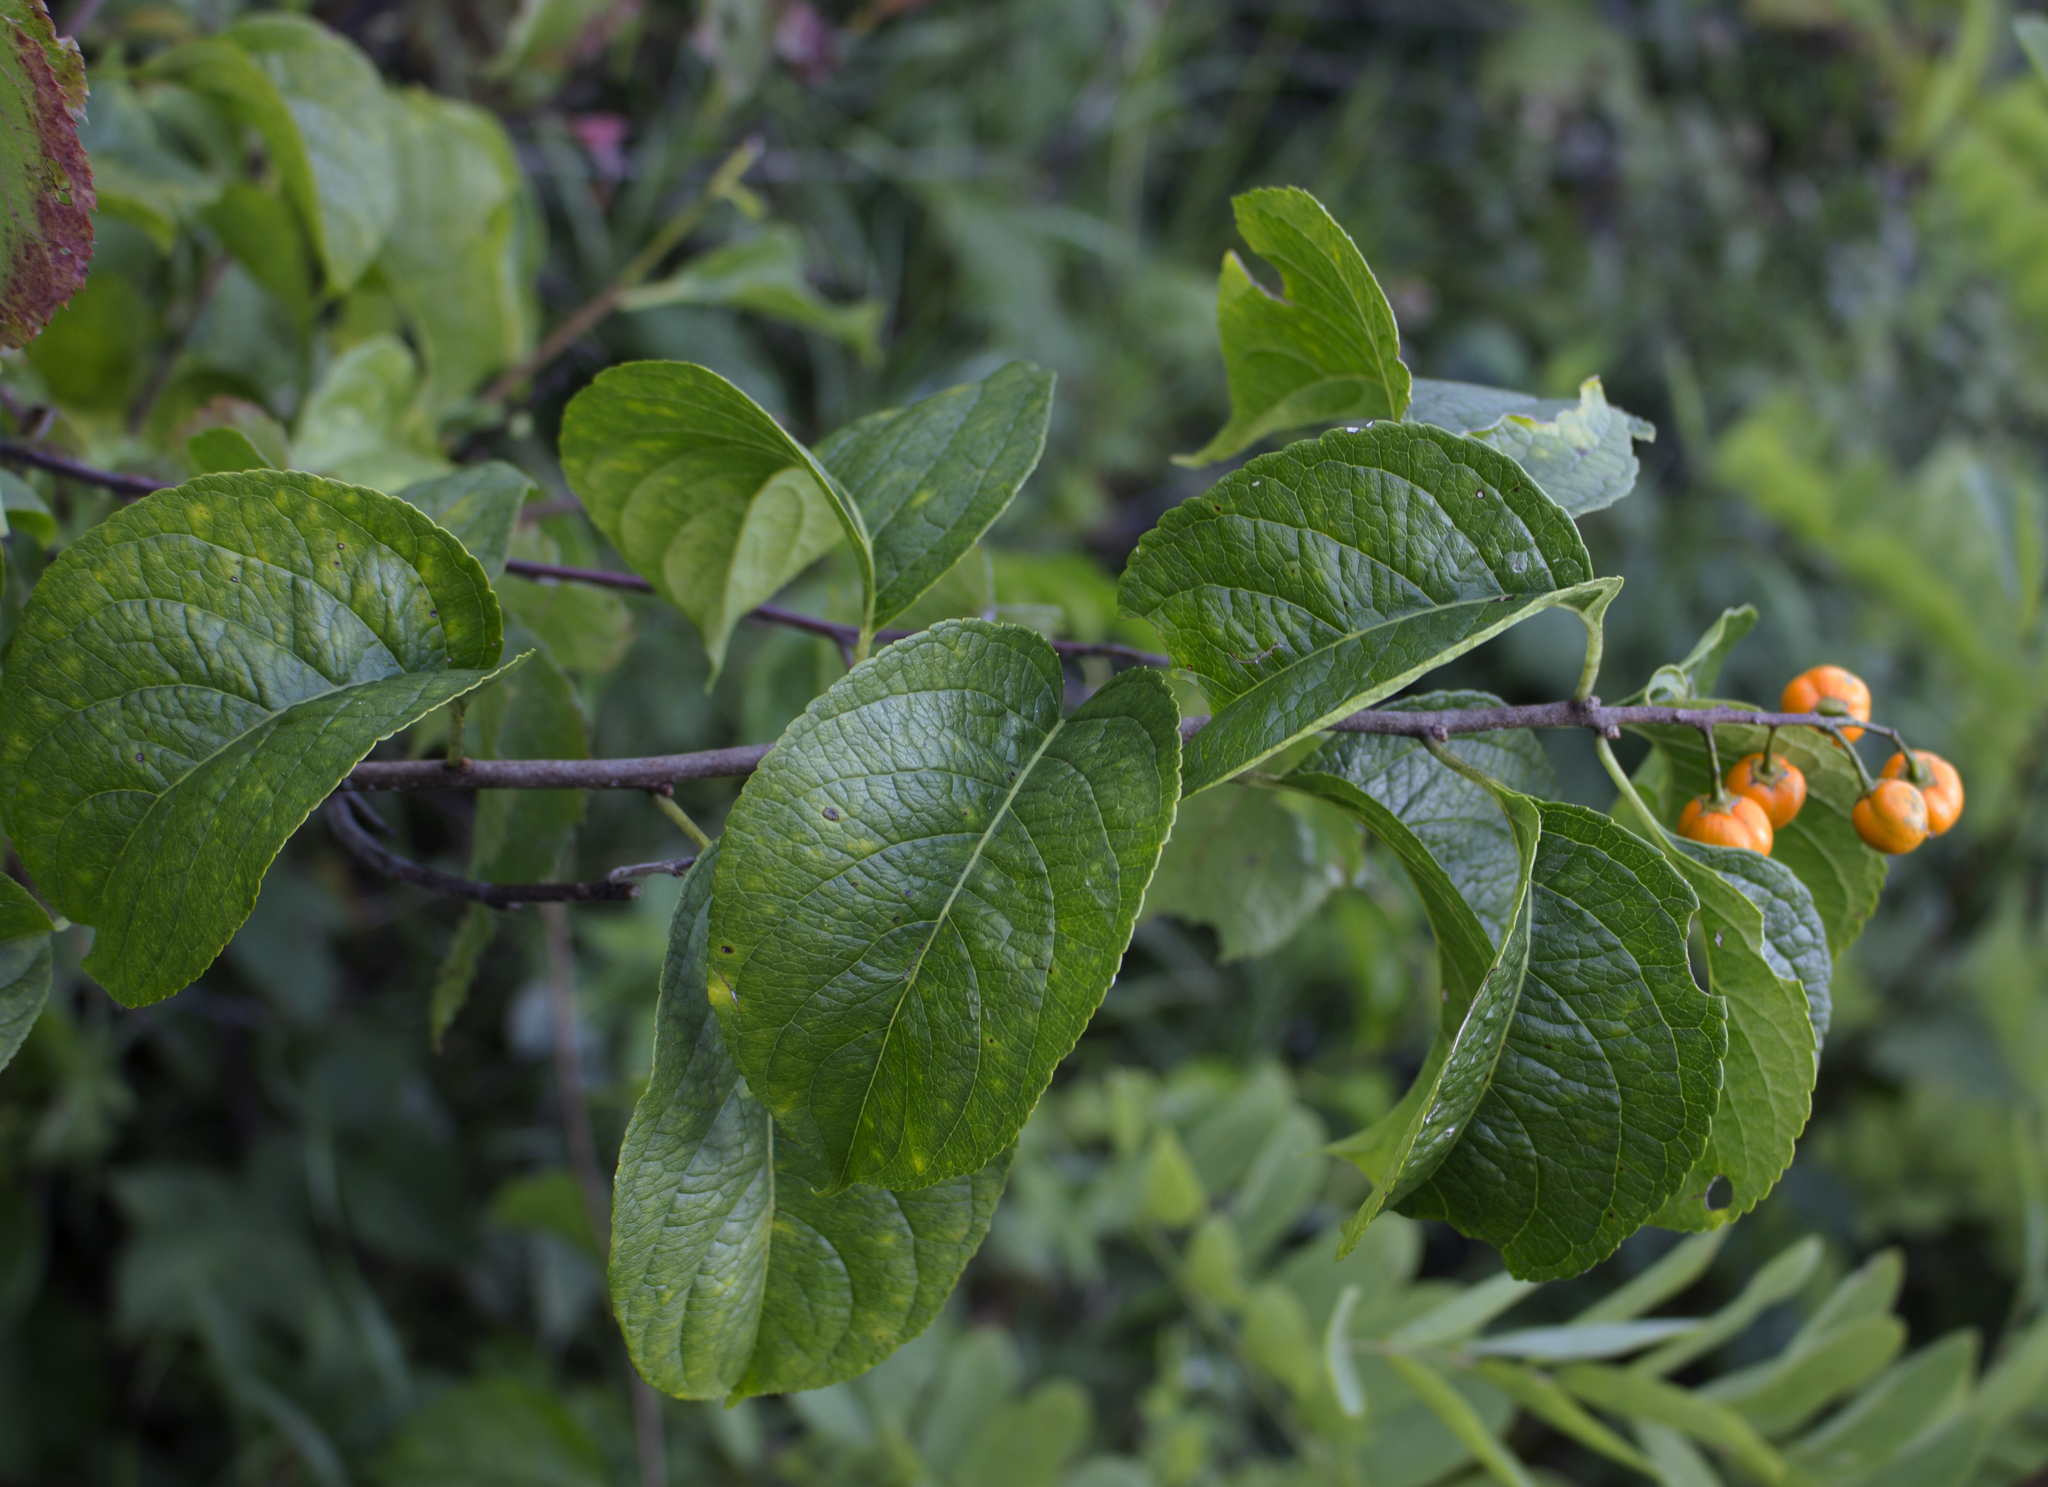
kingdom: Plantae
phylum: Tracheophyta
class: Magnoliopsida
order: Celastrales
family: Celastraceae
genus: Celastrus
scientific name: Celastrus scandens
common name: American bittersweet
